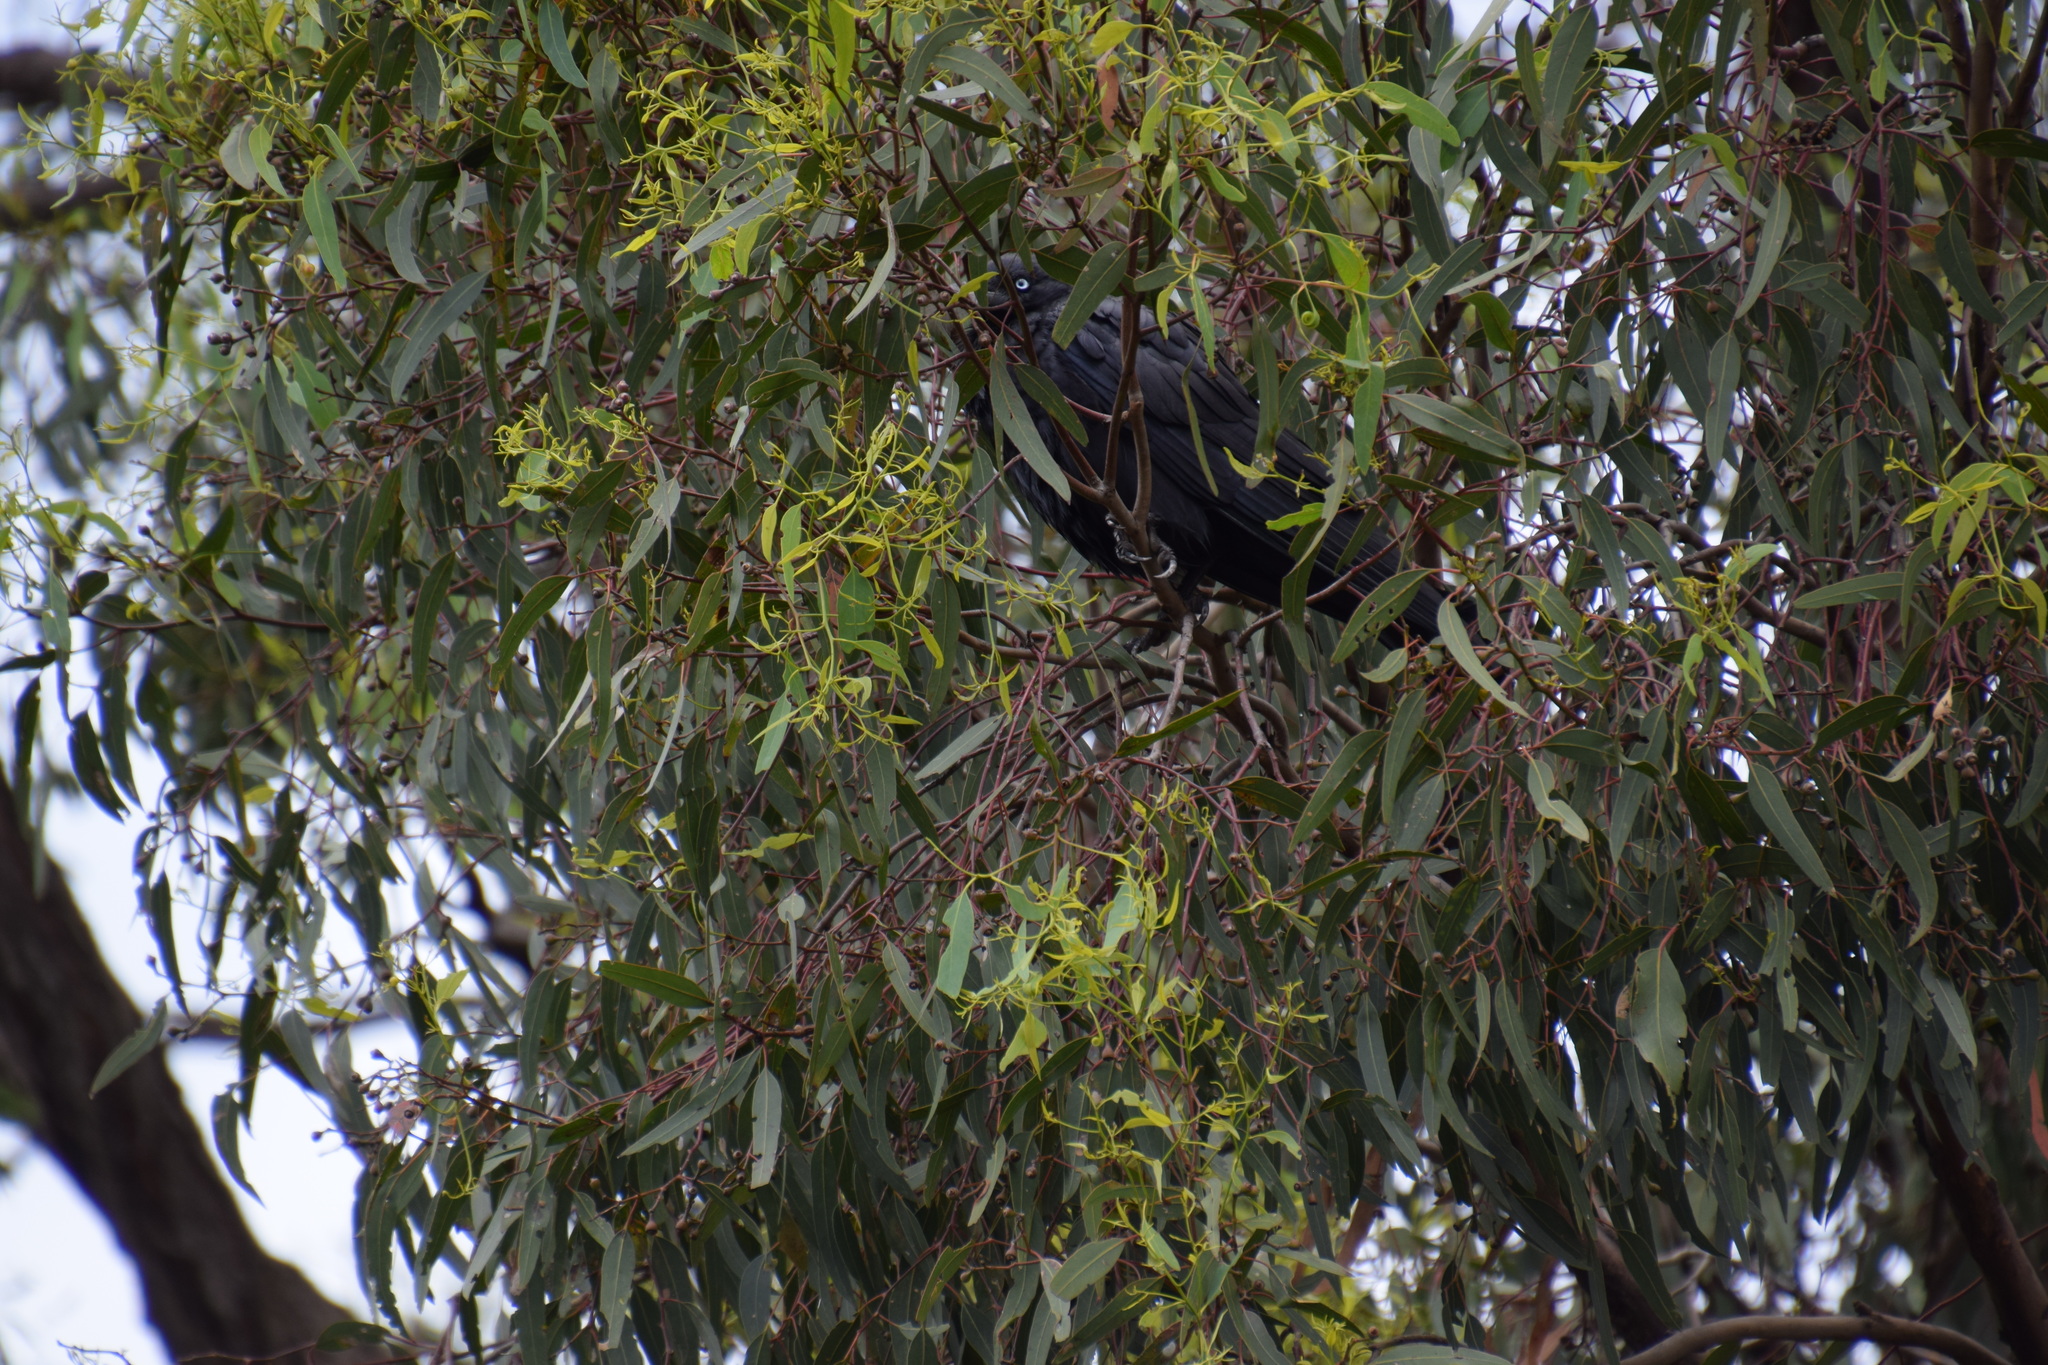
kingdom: Animalia
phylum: Chordata
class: Aves
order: Passeriformes
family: Corvidae
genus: Corvus
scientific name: Corvus coronoides
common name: Australian raven
